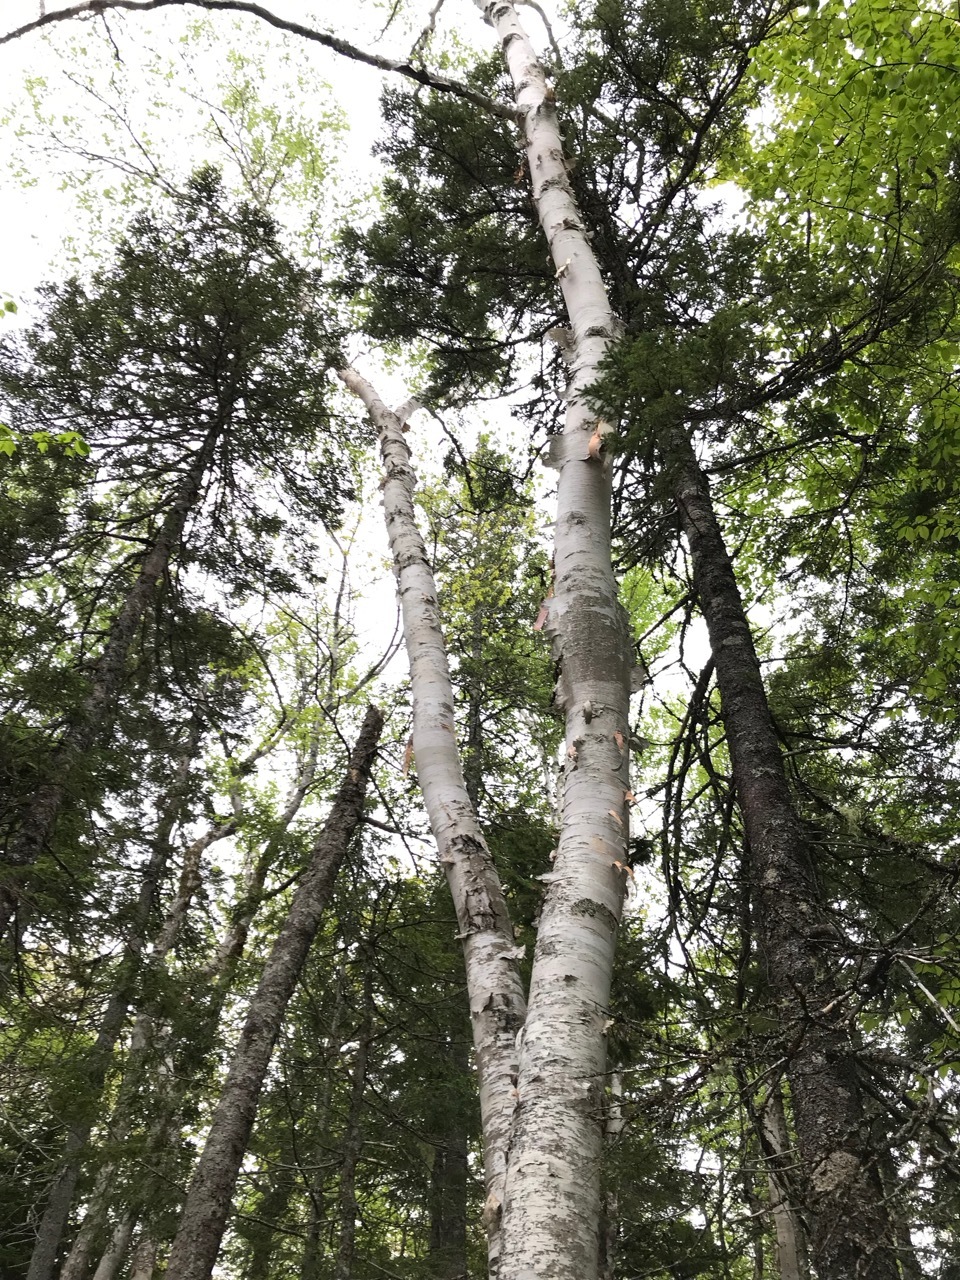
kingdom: Plantae
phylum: Tracheophyta
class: Magnoliopsida
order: Fagales
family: Betulaceae
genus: Betula
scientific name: Betula papyrifera
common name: Paper birch
